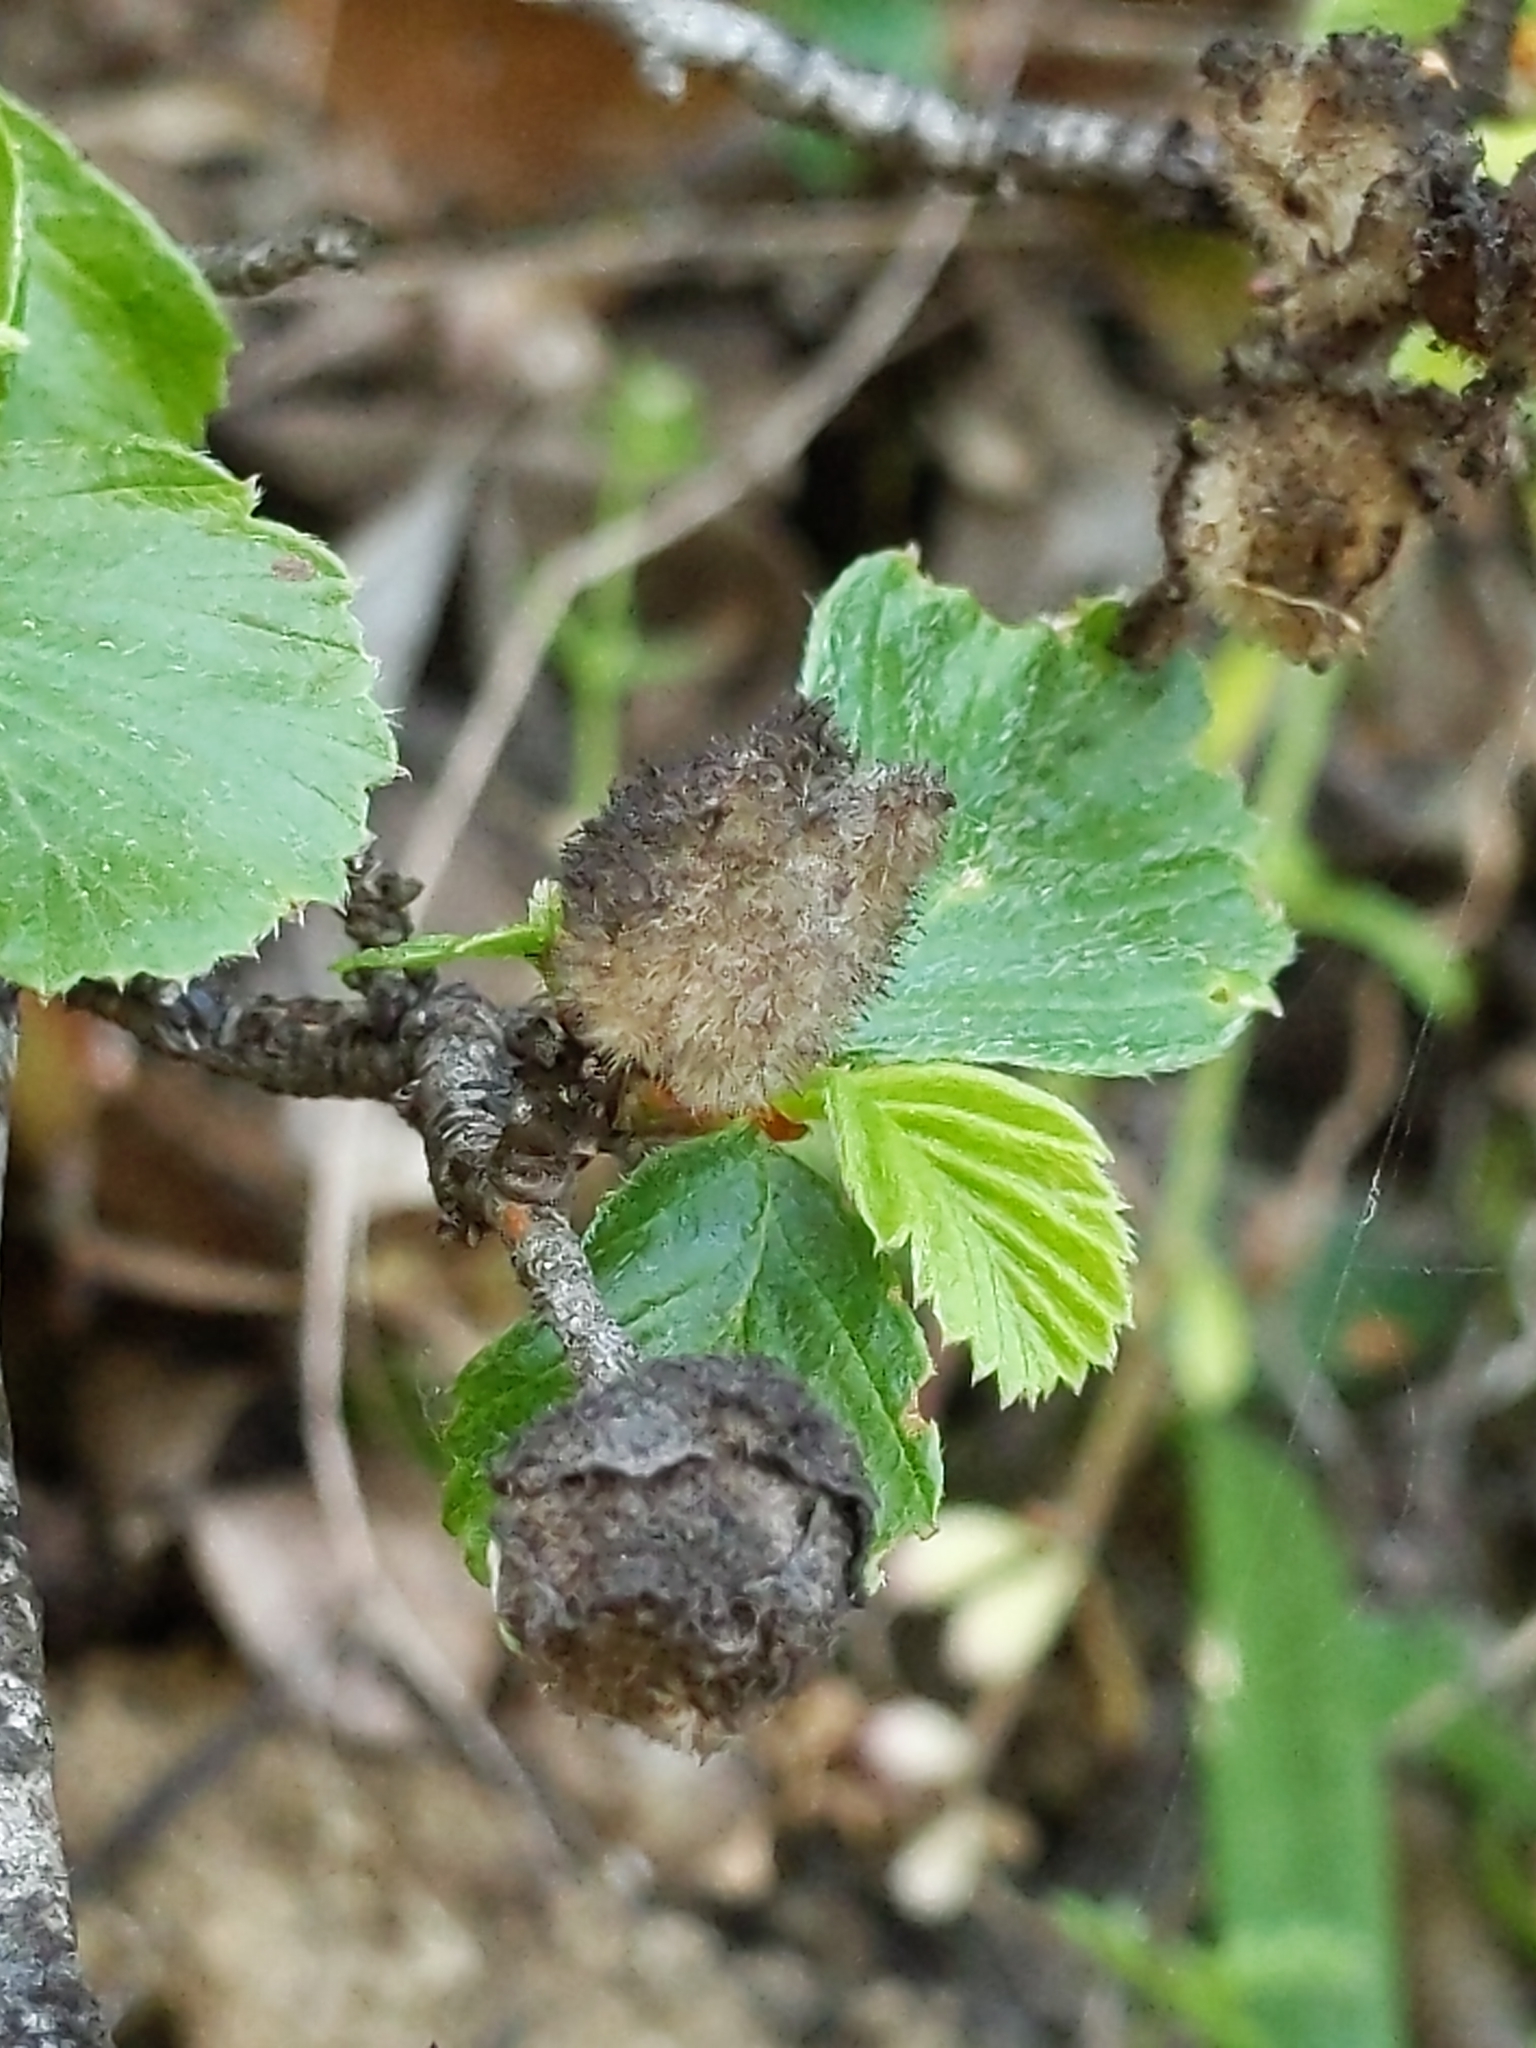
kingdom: Plantae
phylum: Tracheophyta
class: Magnoliopsida
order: Rosales
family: Rosaceae
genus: Cercocarpus
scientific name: Cercocarpus betuloides
